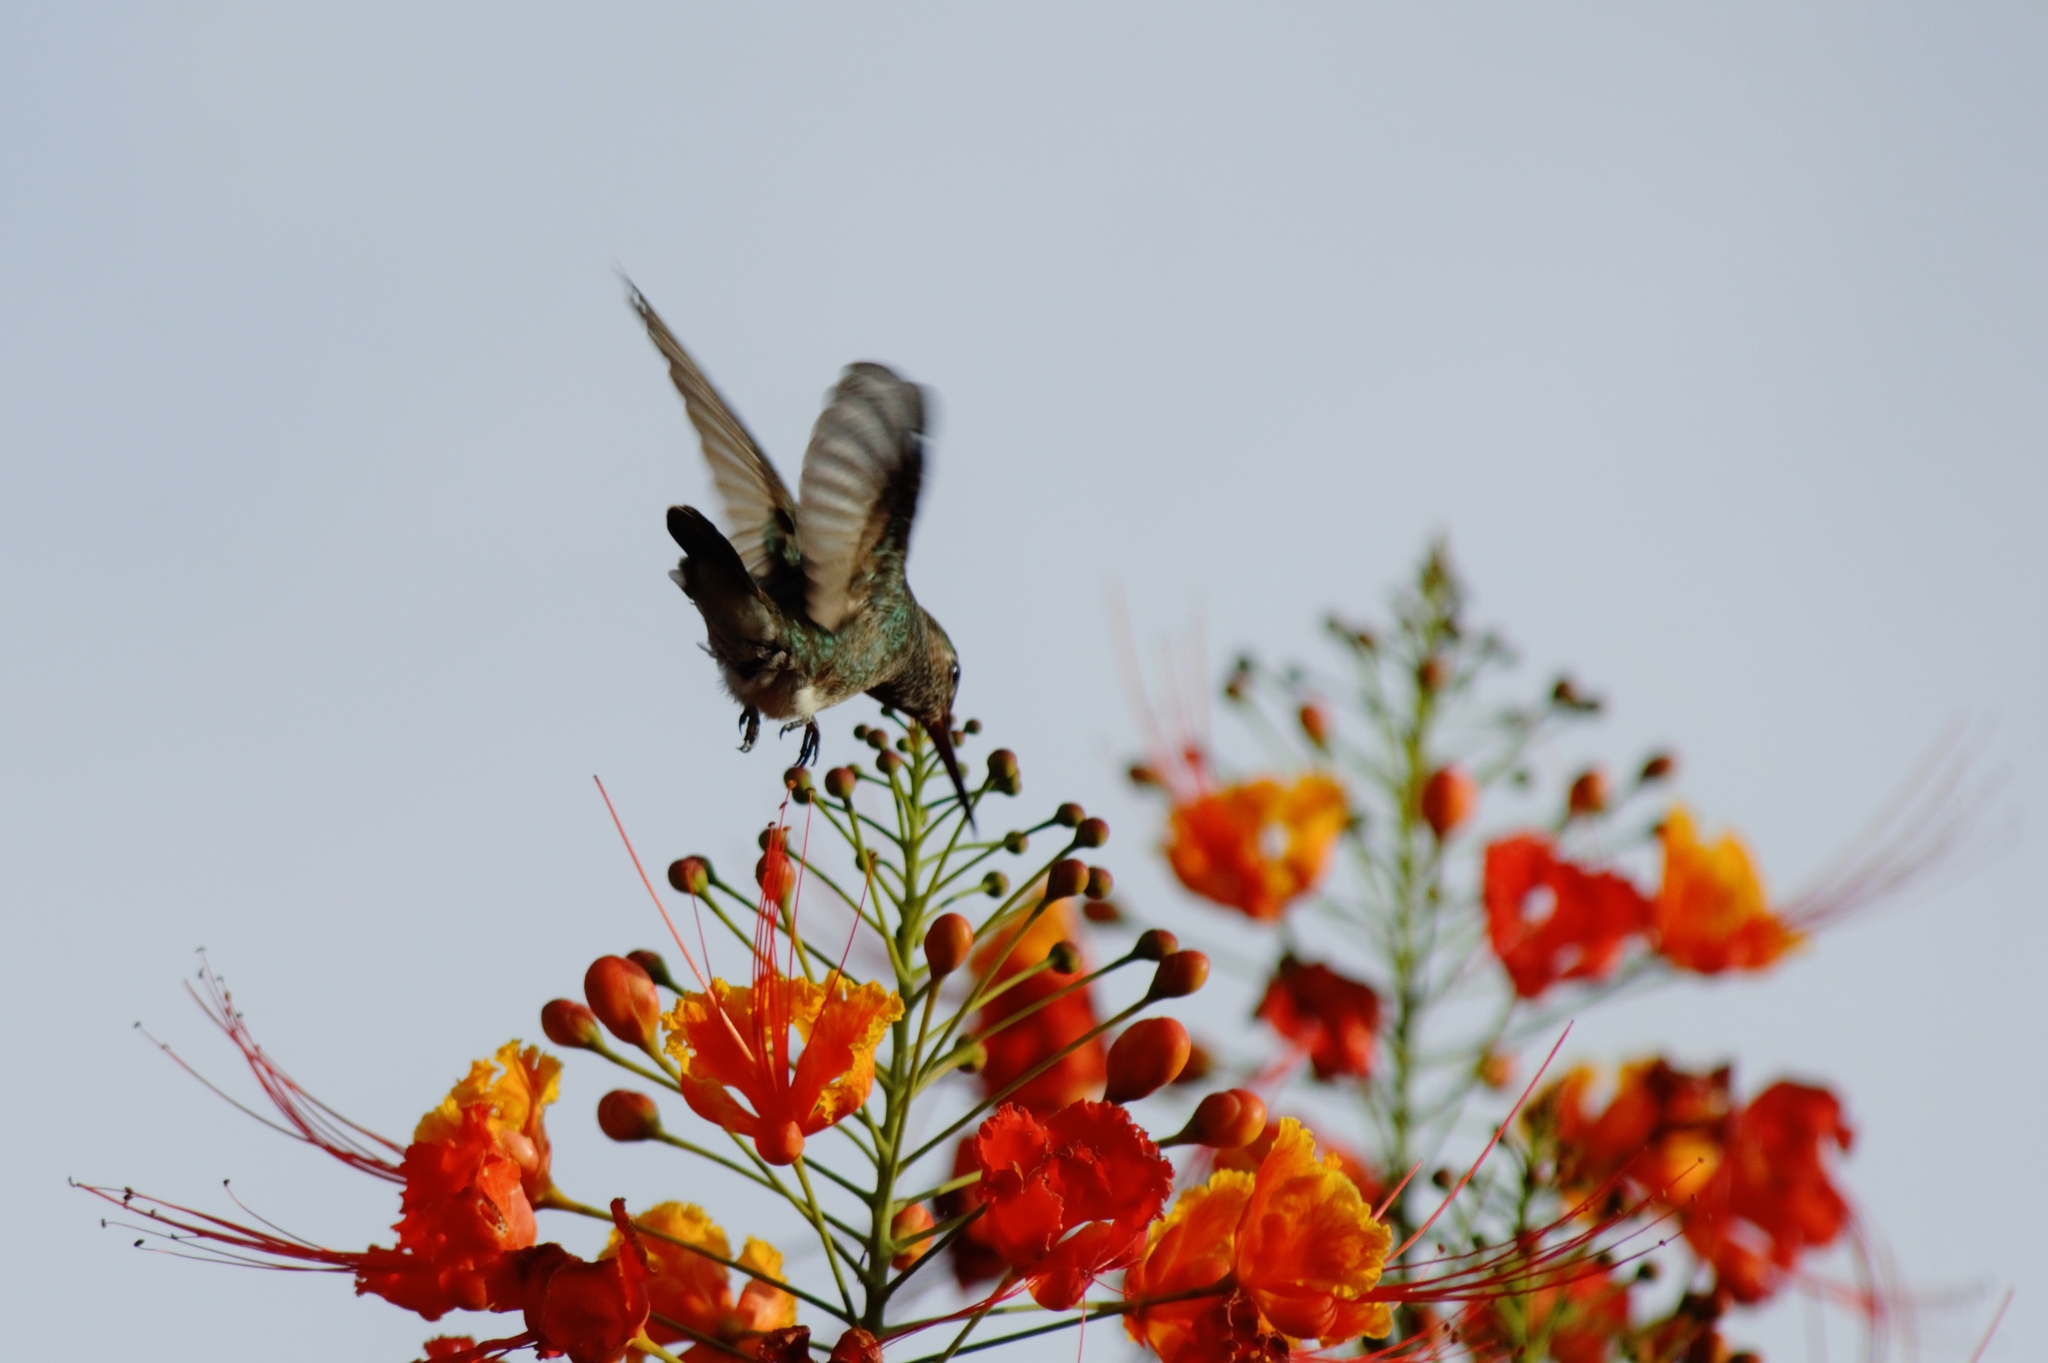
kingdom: Animalia
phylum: Chordata
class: Aves
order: Apodiformes
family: Trochilidae
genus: Thalurania
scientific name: Thalurania furcata
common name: Fork-tailed woodnymph
